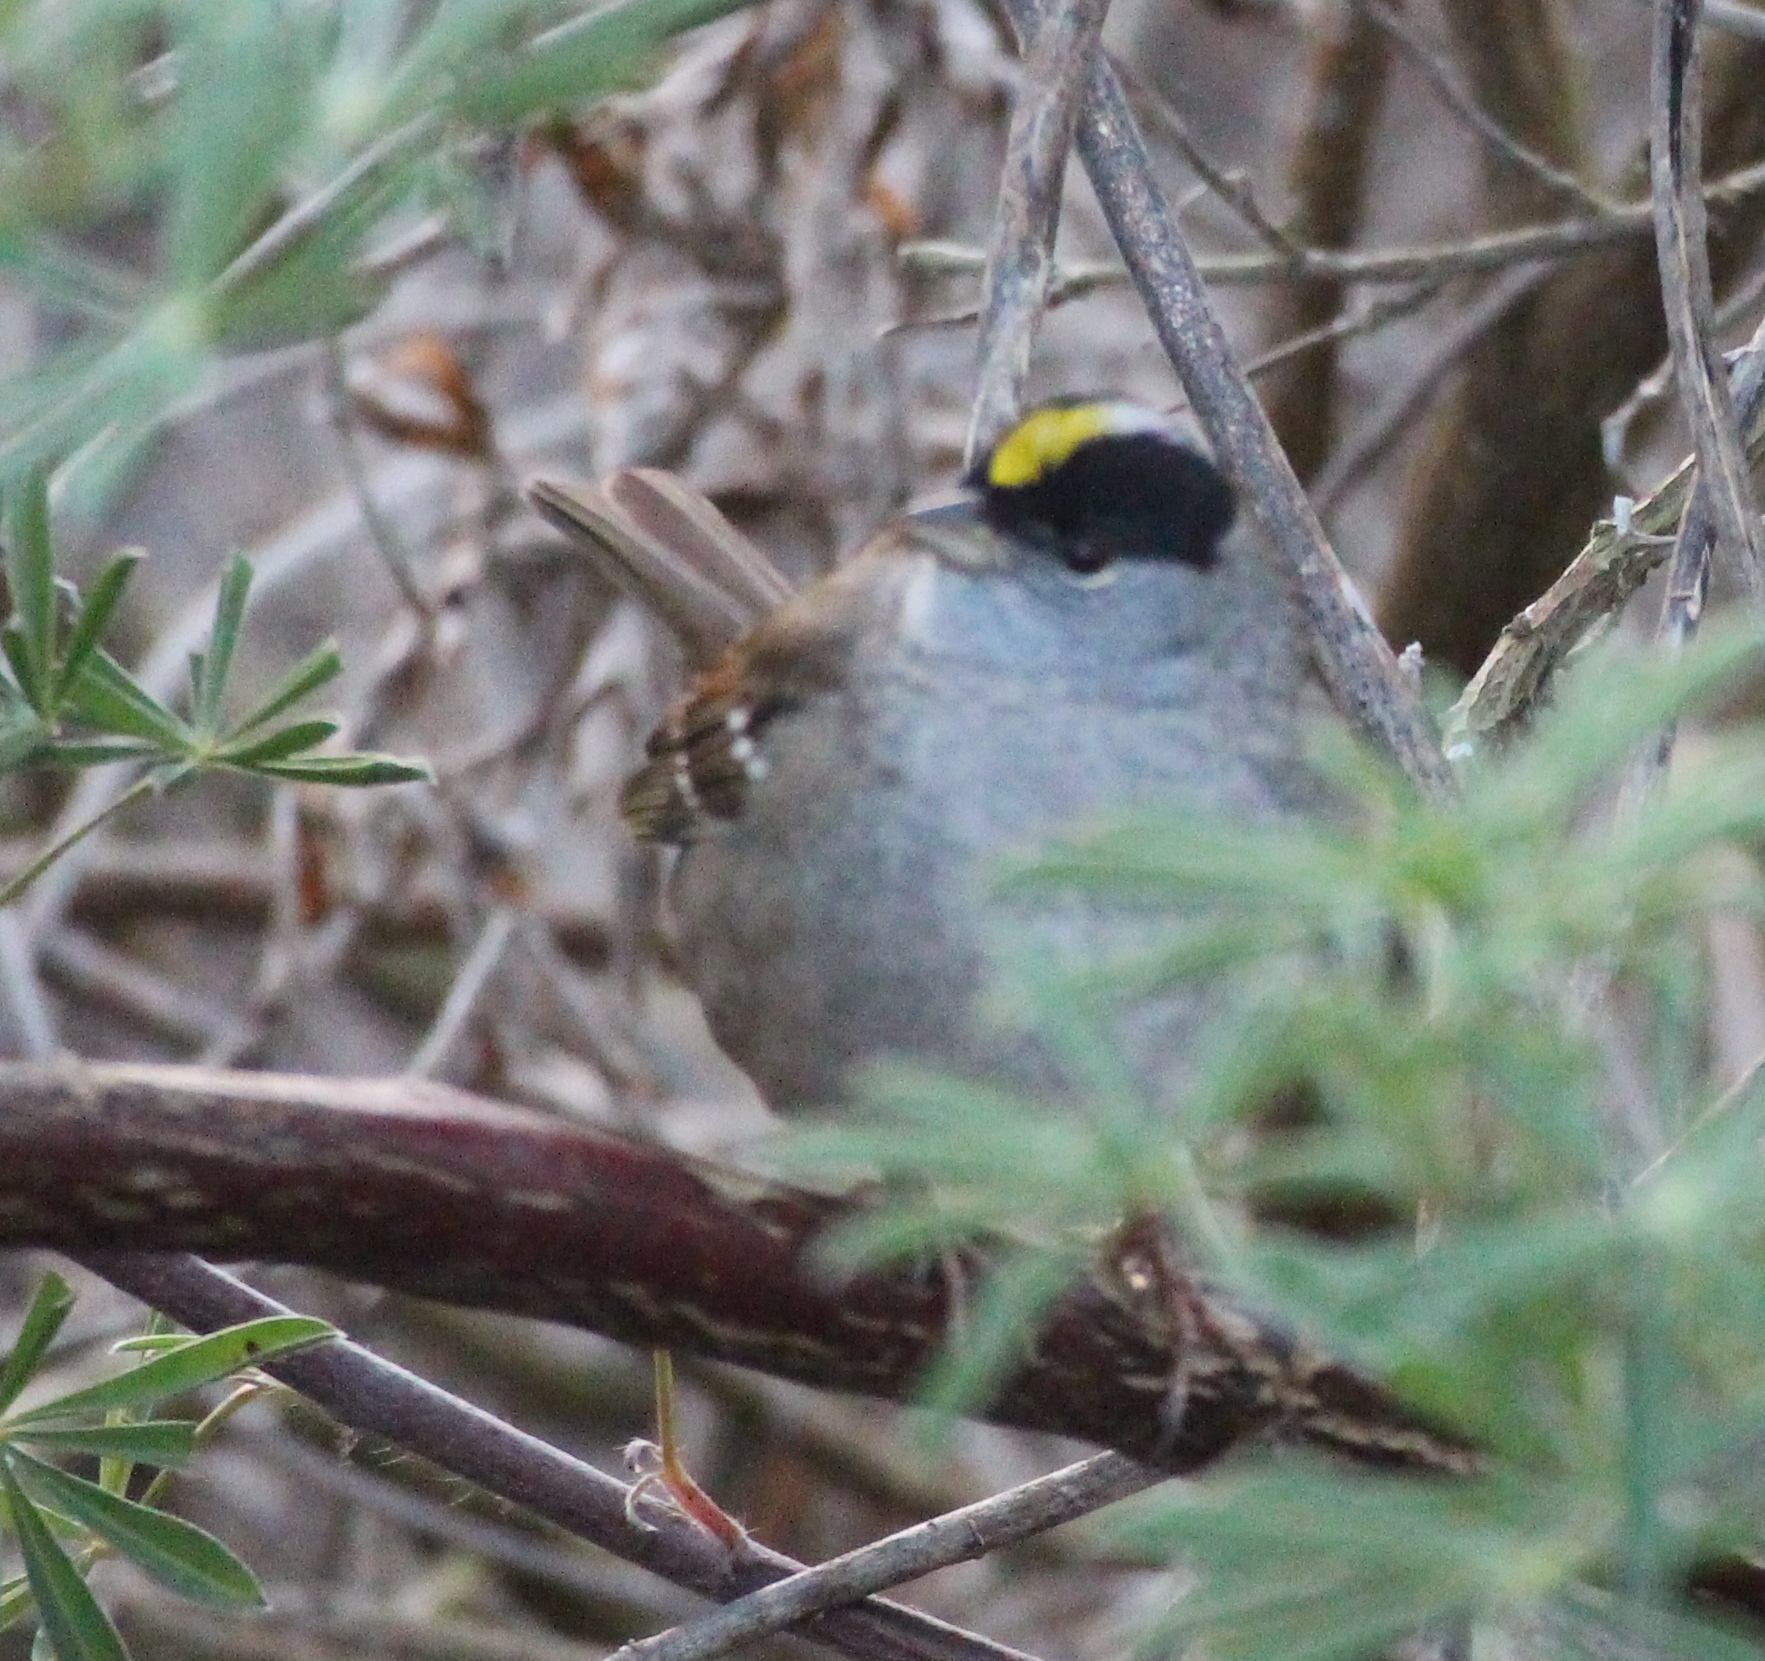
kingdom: Animalia
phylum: Chordata
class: Aves
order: Passeriformes
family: Passerellidae
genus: Zonotrichia
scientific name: Zonotrichia atricapilla
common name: Golden-crowned sparrow
